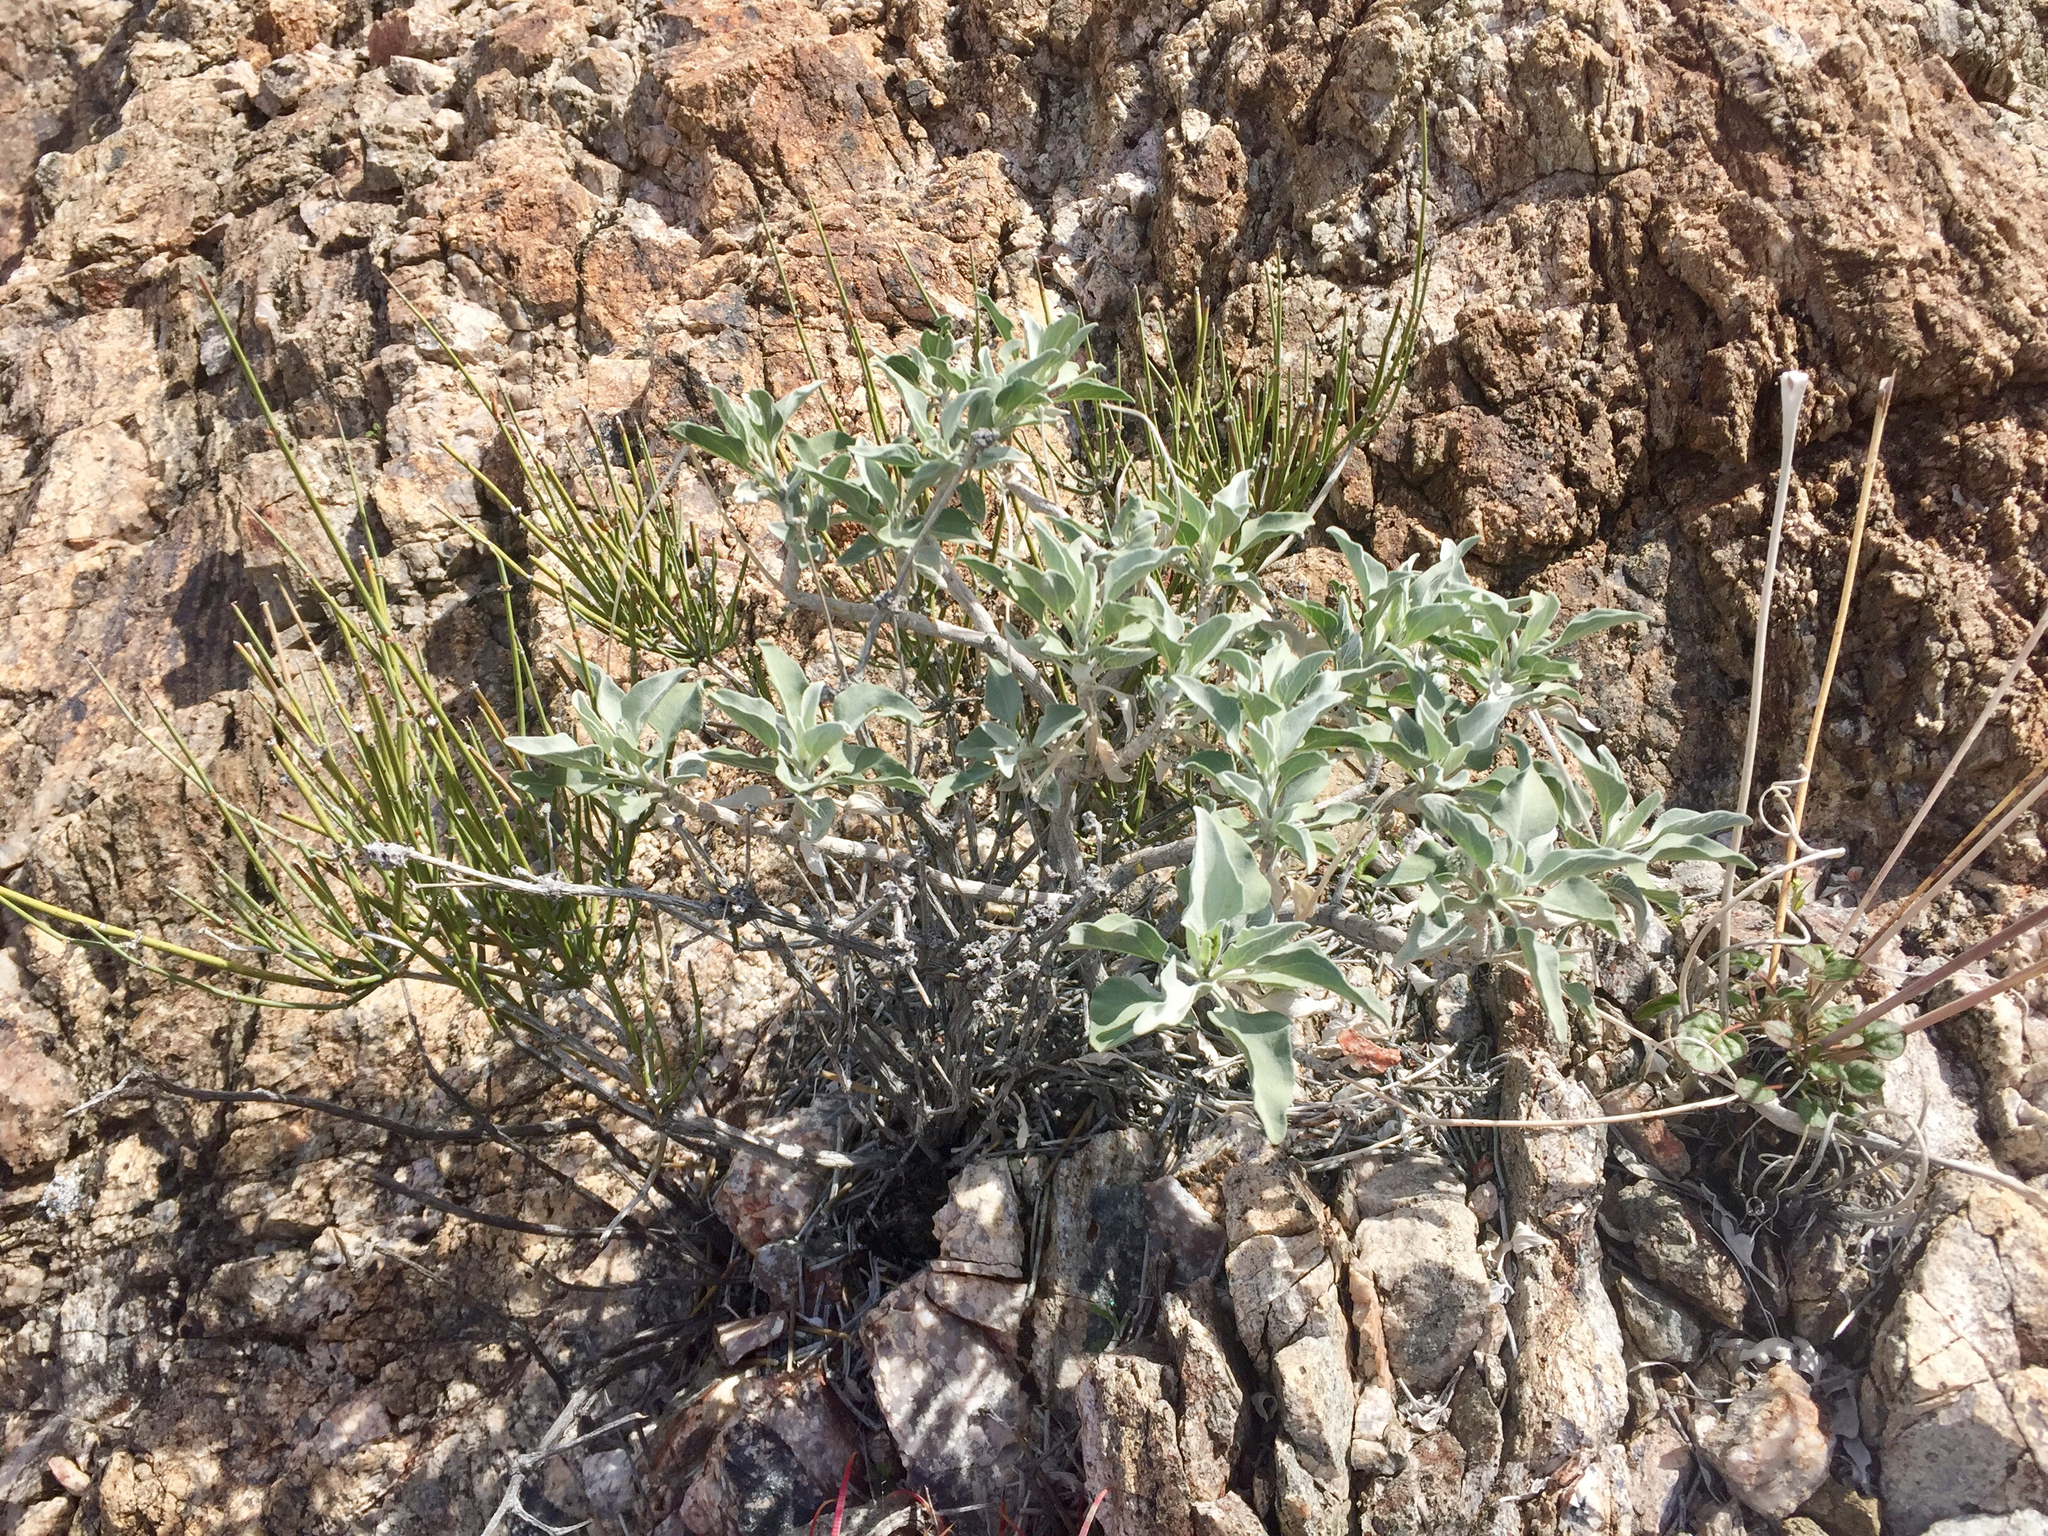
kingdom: Plantae
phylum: Tracheophyta
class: Magnoliopsida
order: Asterales
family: Asteraceae
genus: Encelia
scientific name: Encelia farinosa
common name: Brittlebush
